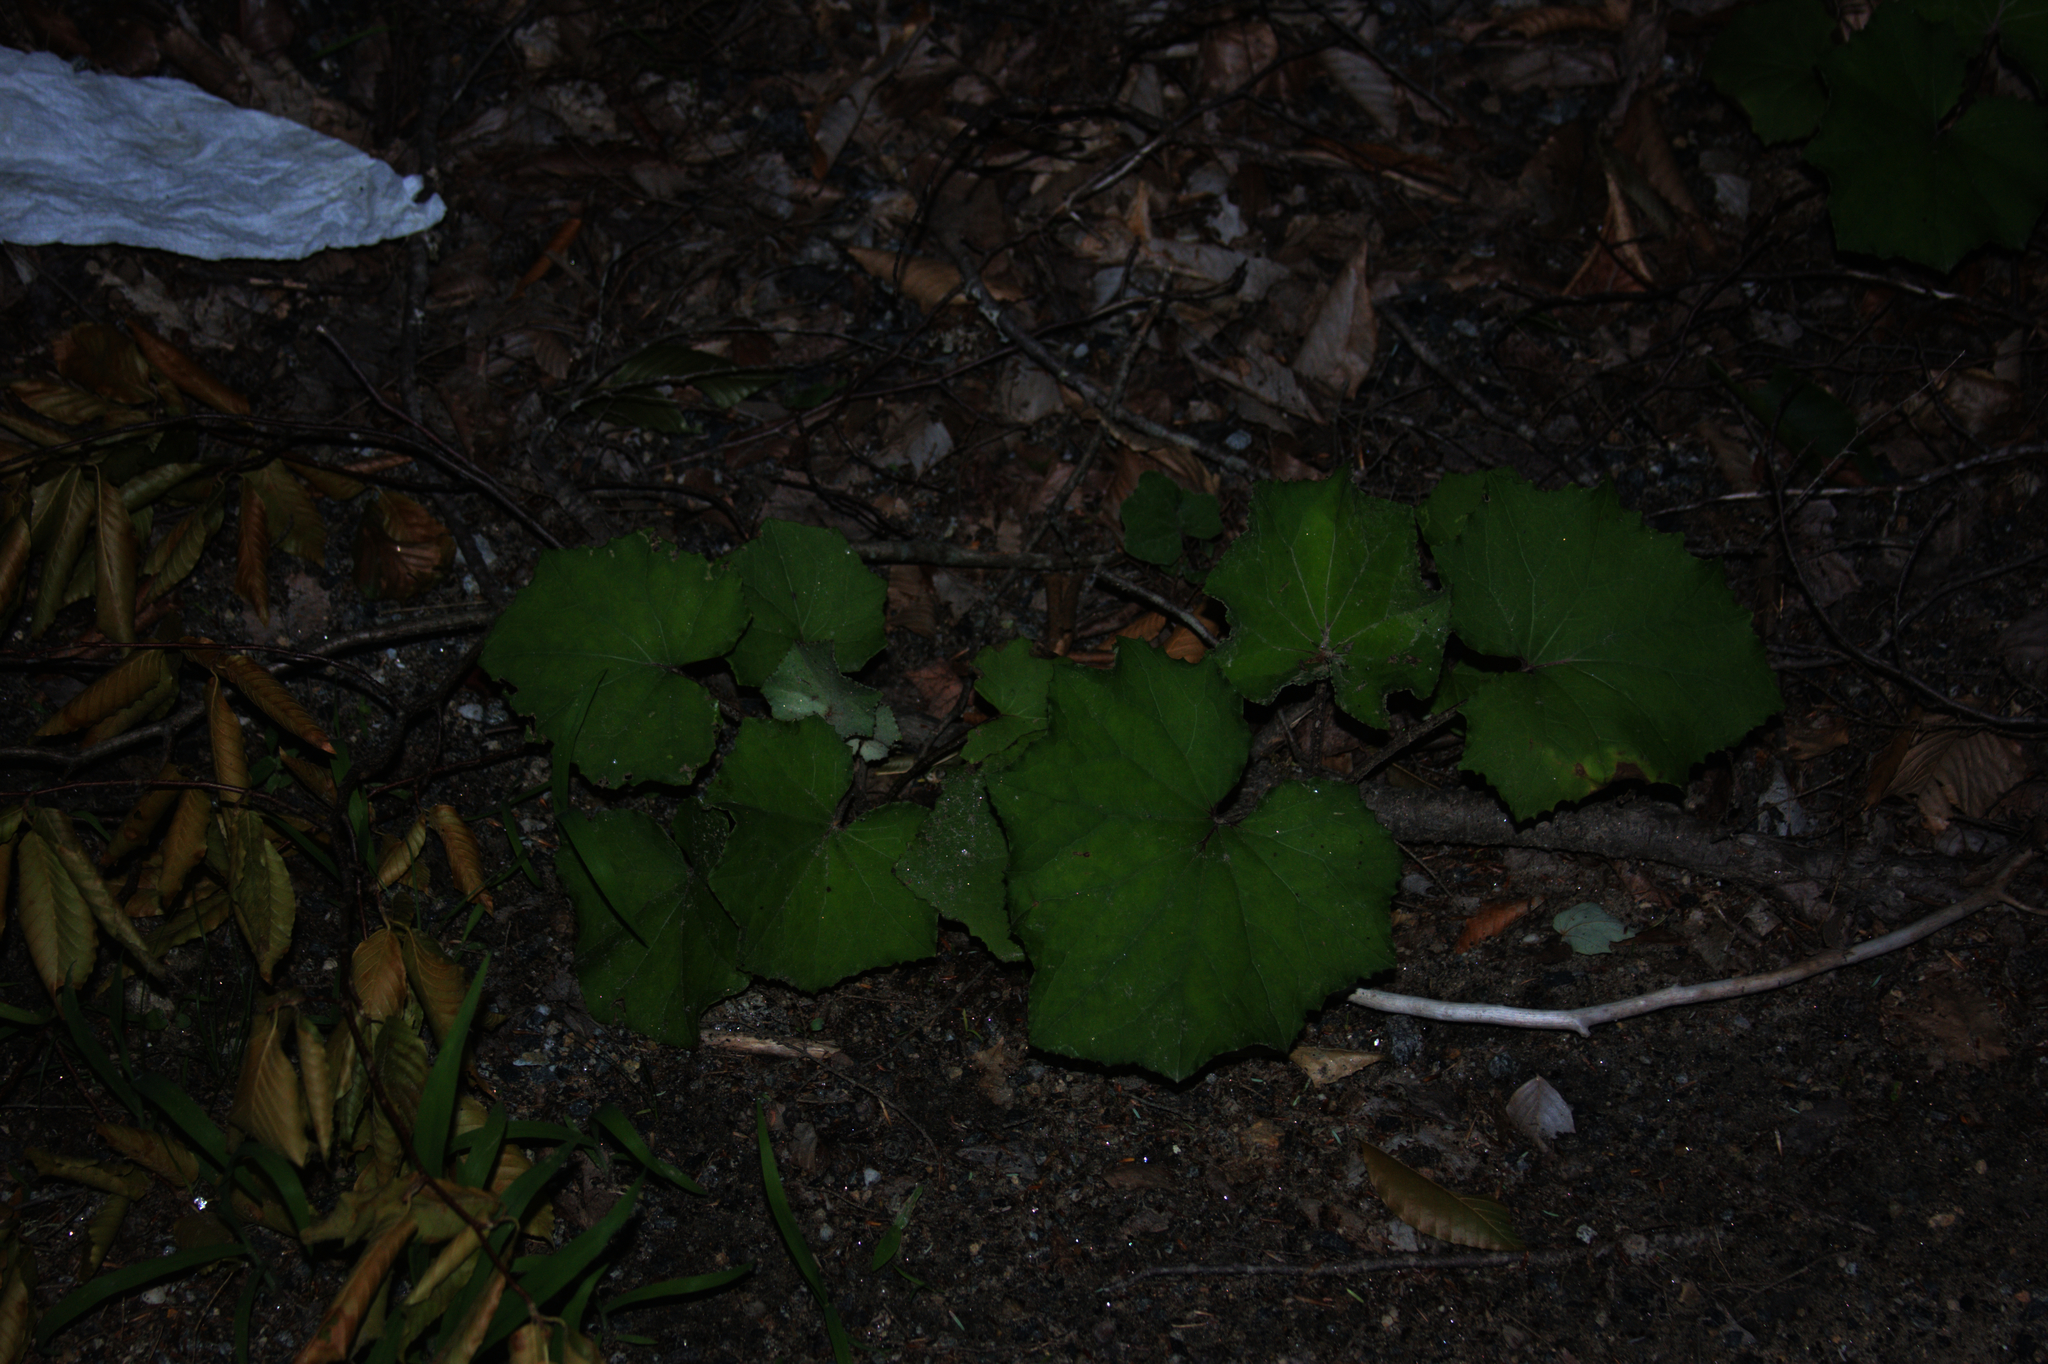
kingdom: Plantae
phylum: Tracheophyta
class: Magnoliopsida
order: Asterales
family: Asteraceae
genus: Tussilago
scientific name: Tussilago farfara
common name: Coltsfoot
